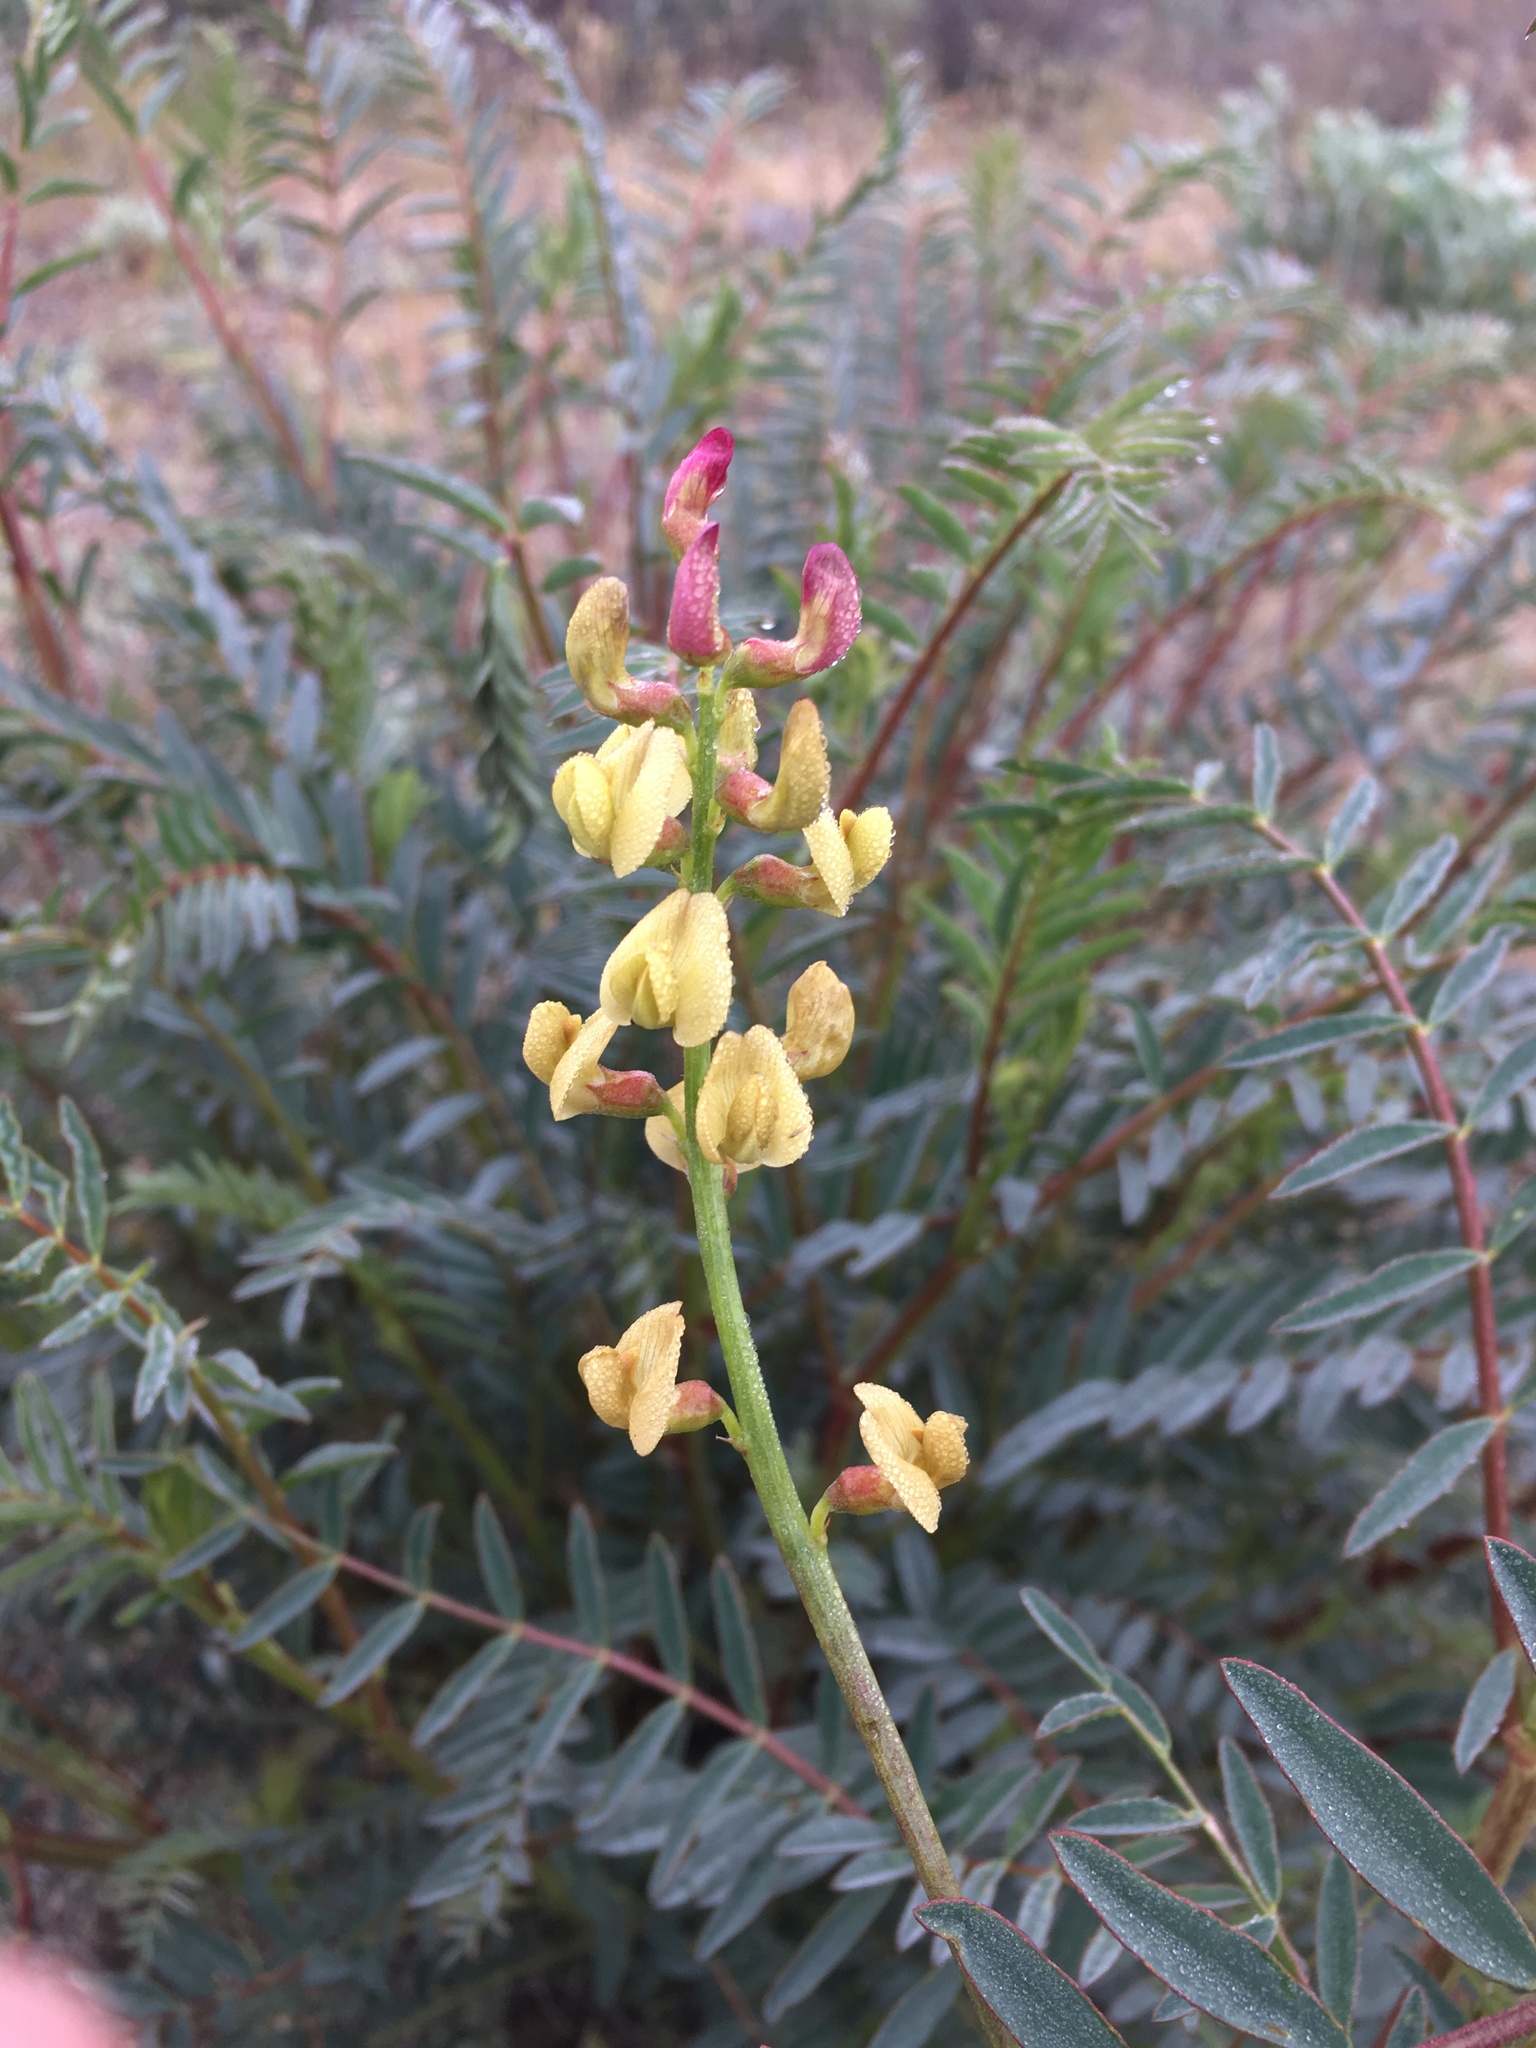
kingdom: Plantae
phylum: Tracheophyta
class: Magnoliopsida
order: Fabales
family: Fabaceae
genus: Astragalus
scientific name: Astragalus douglasii
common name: Jacumba milkvetch
